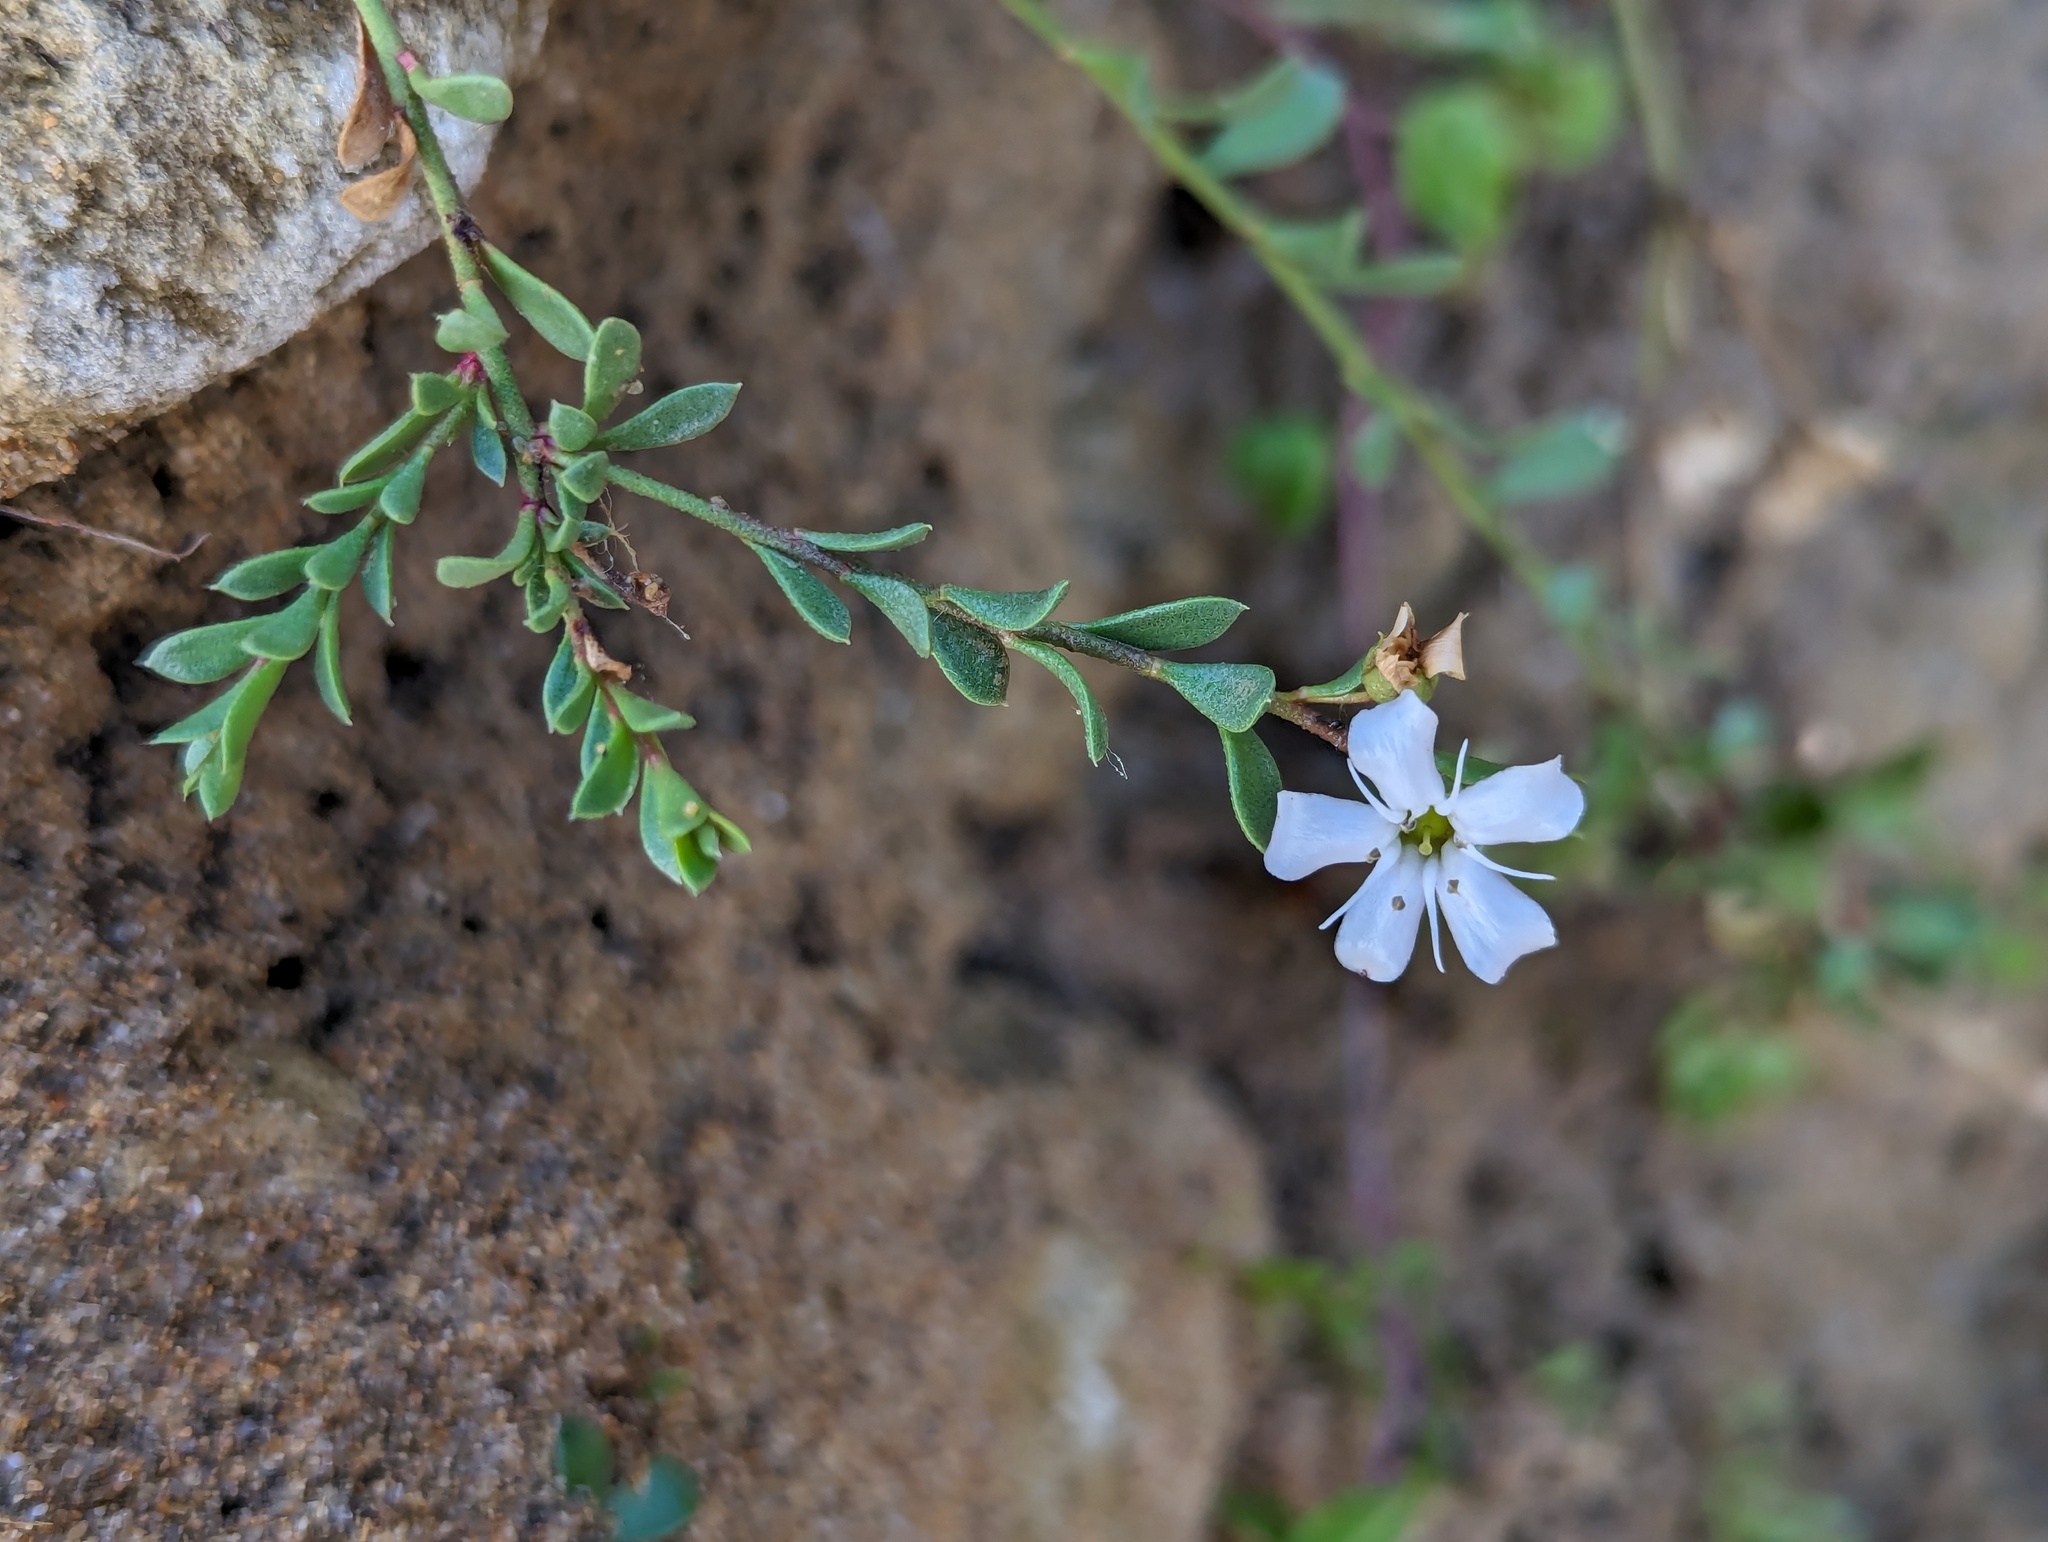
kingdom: Plantae
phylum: Tracheophyta
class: Magnoliopsida
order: Ericales
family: Primulaceae
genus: Samolus
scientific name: Samolus repens
